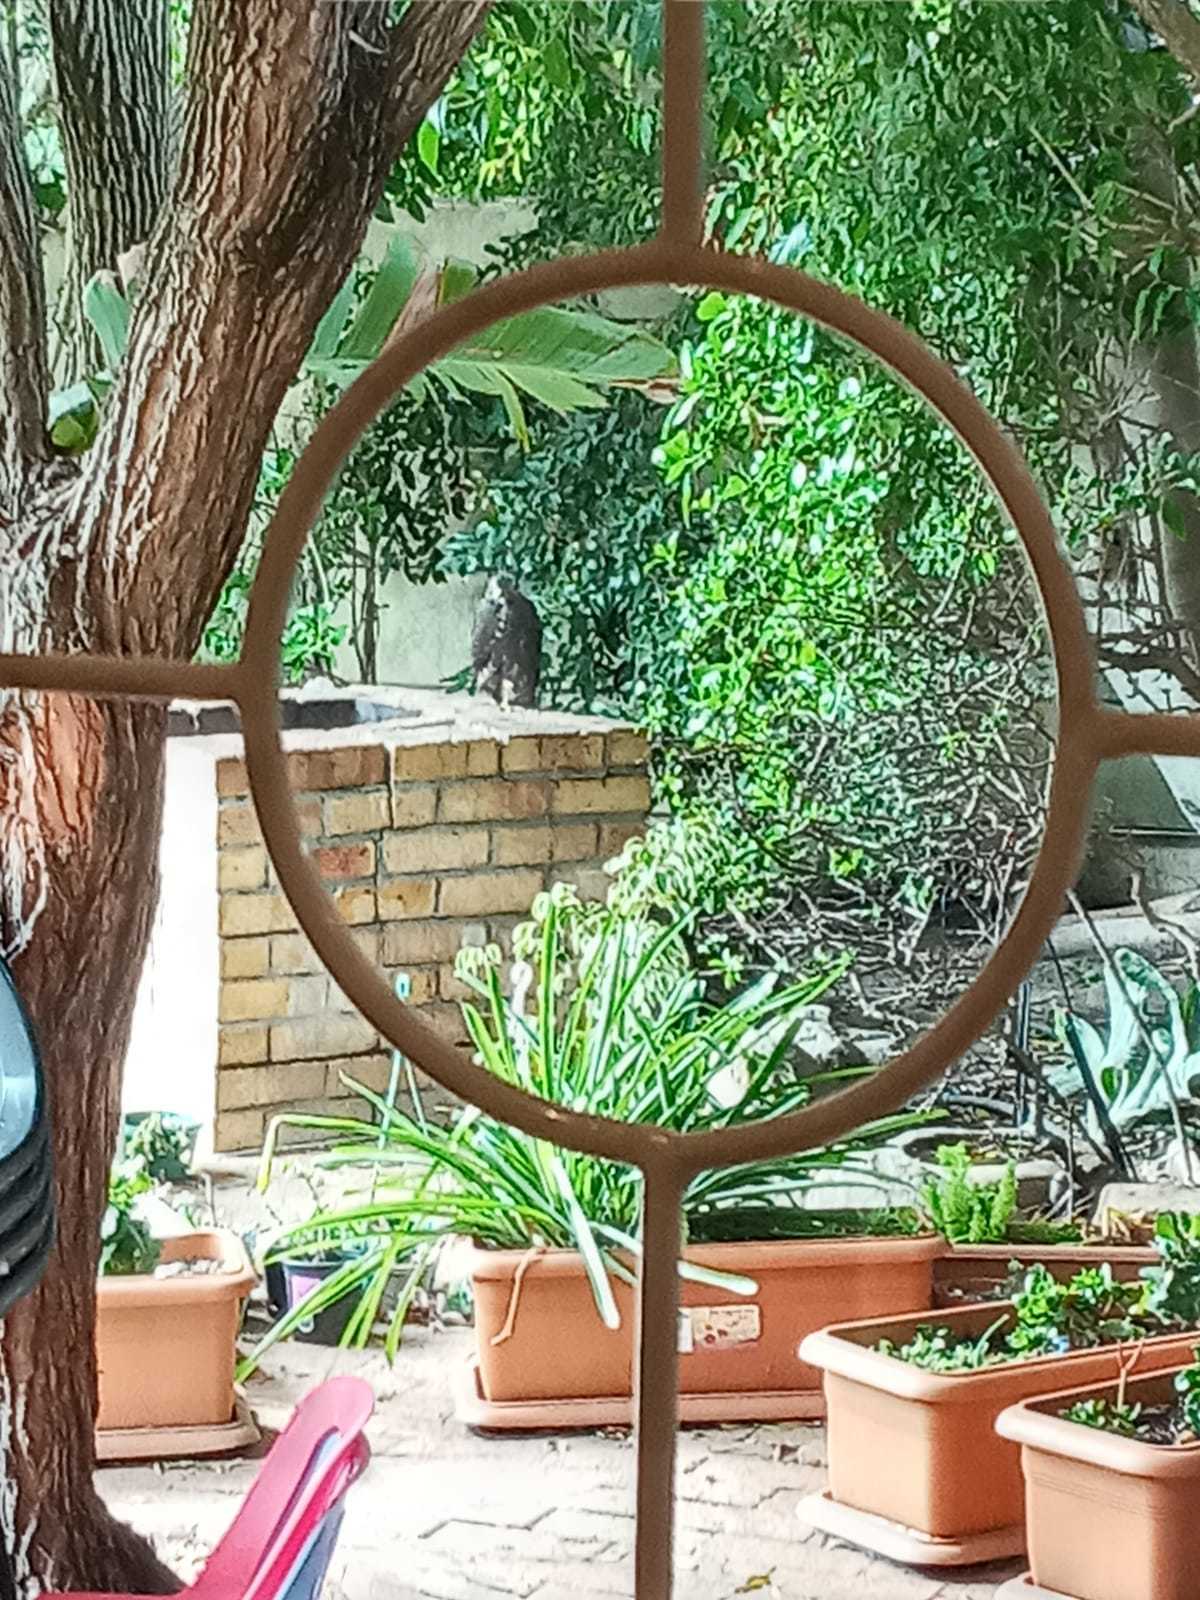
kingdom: Animalia
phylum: Chordata
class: Aves
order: Accipitriformes
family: Accipitridae
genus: Accipiter
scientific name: Accipiter melanoleucus
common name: Black sparrowhawk
